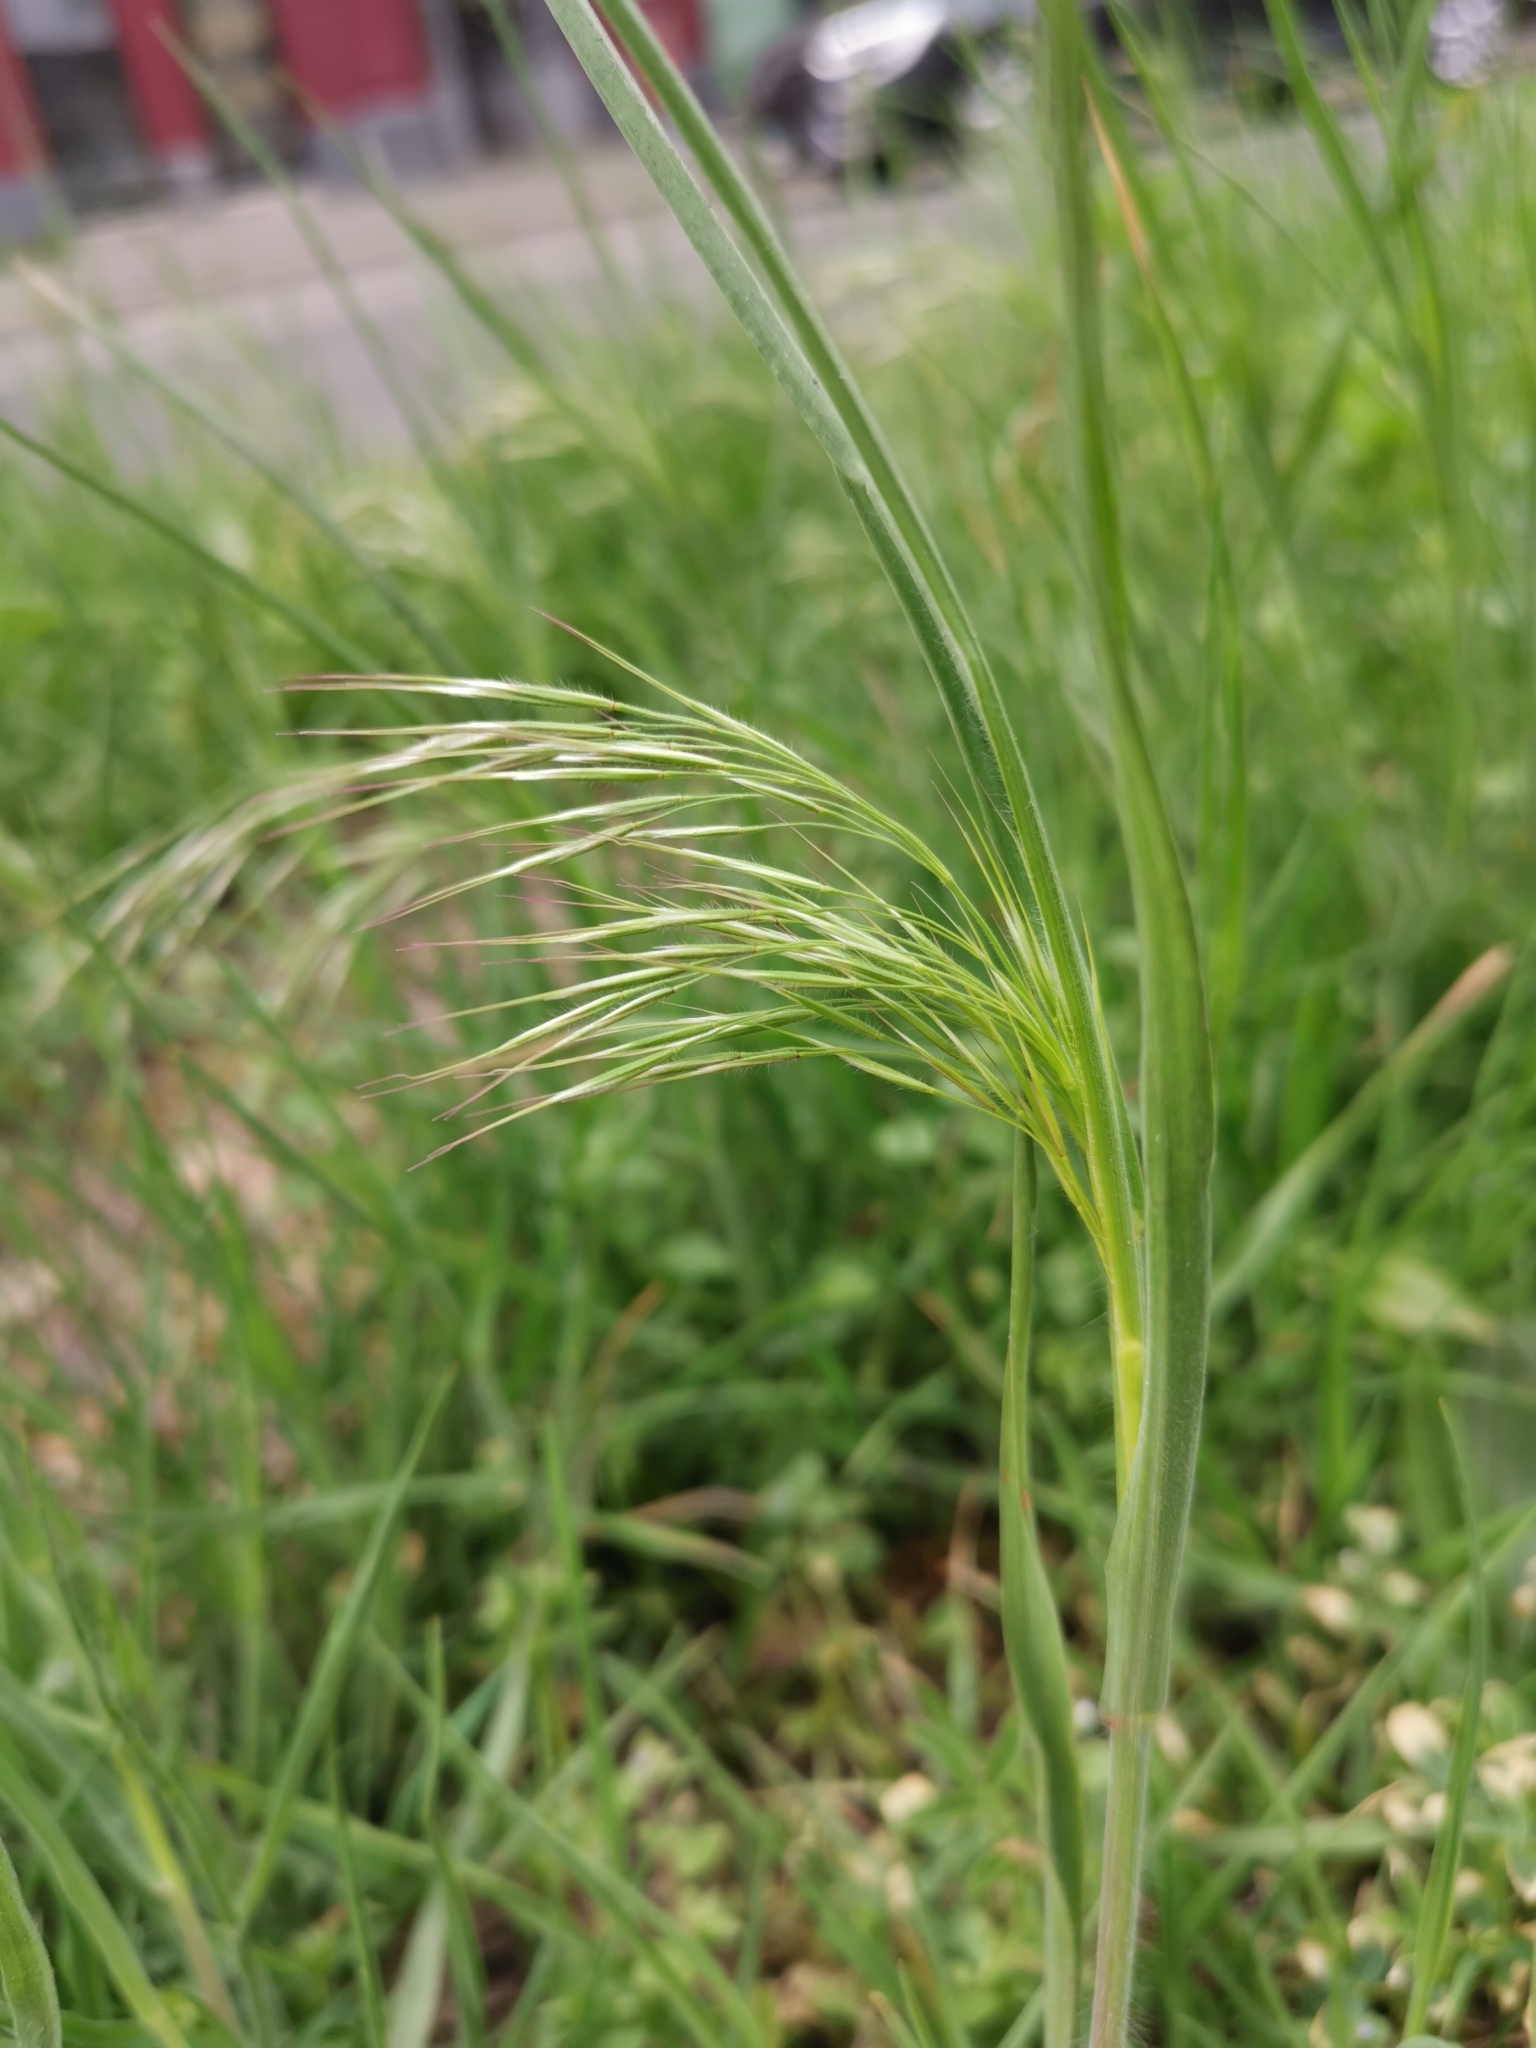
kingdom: Plantae
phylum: Tracheophyta
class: Liliopsida
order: Poales
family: Poaceae
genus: Bromus
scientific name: Bromus tectorum
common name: Cheatgrass
